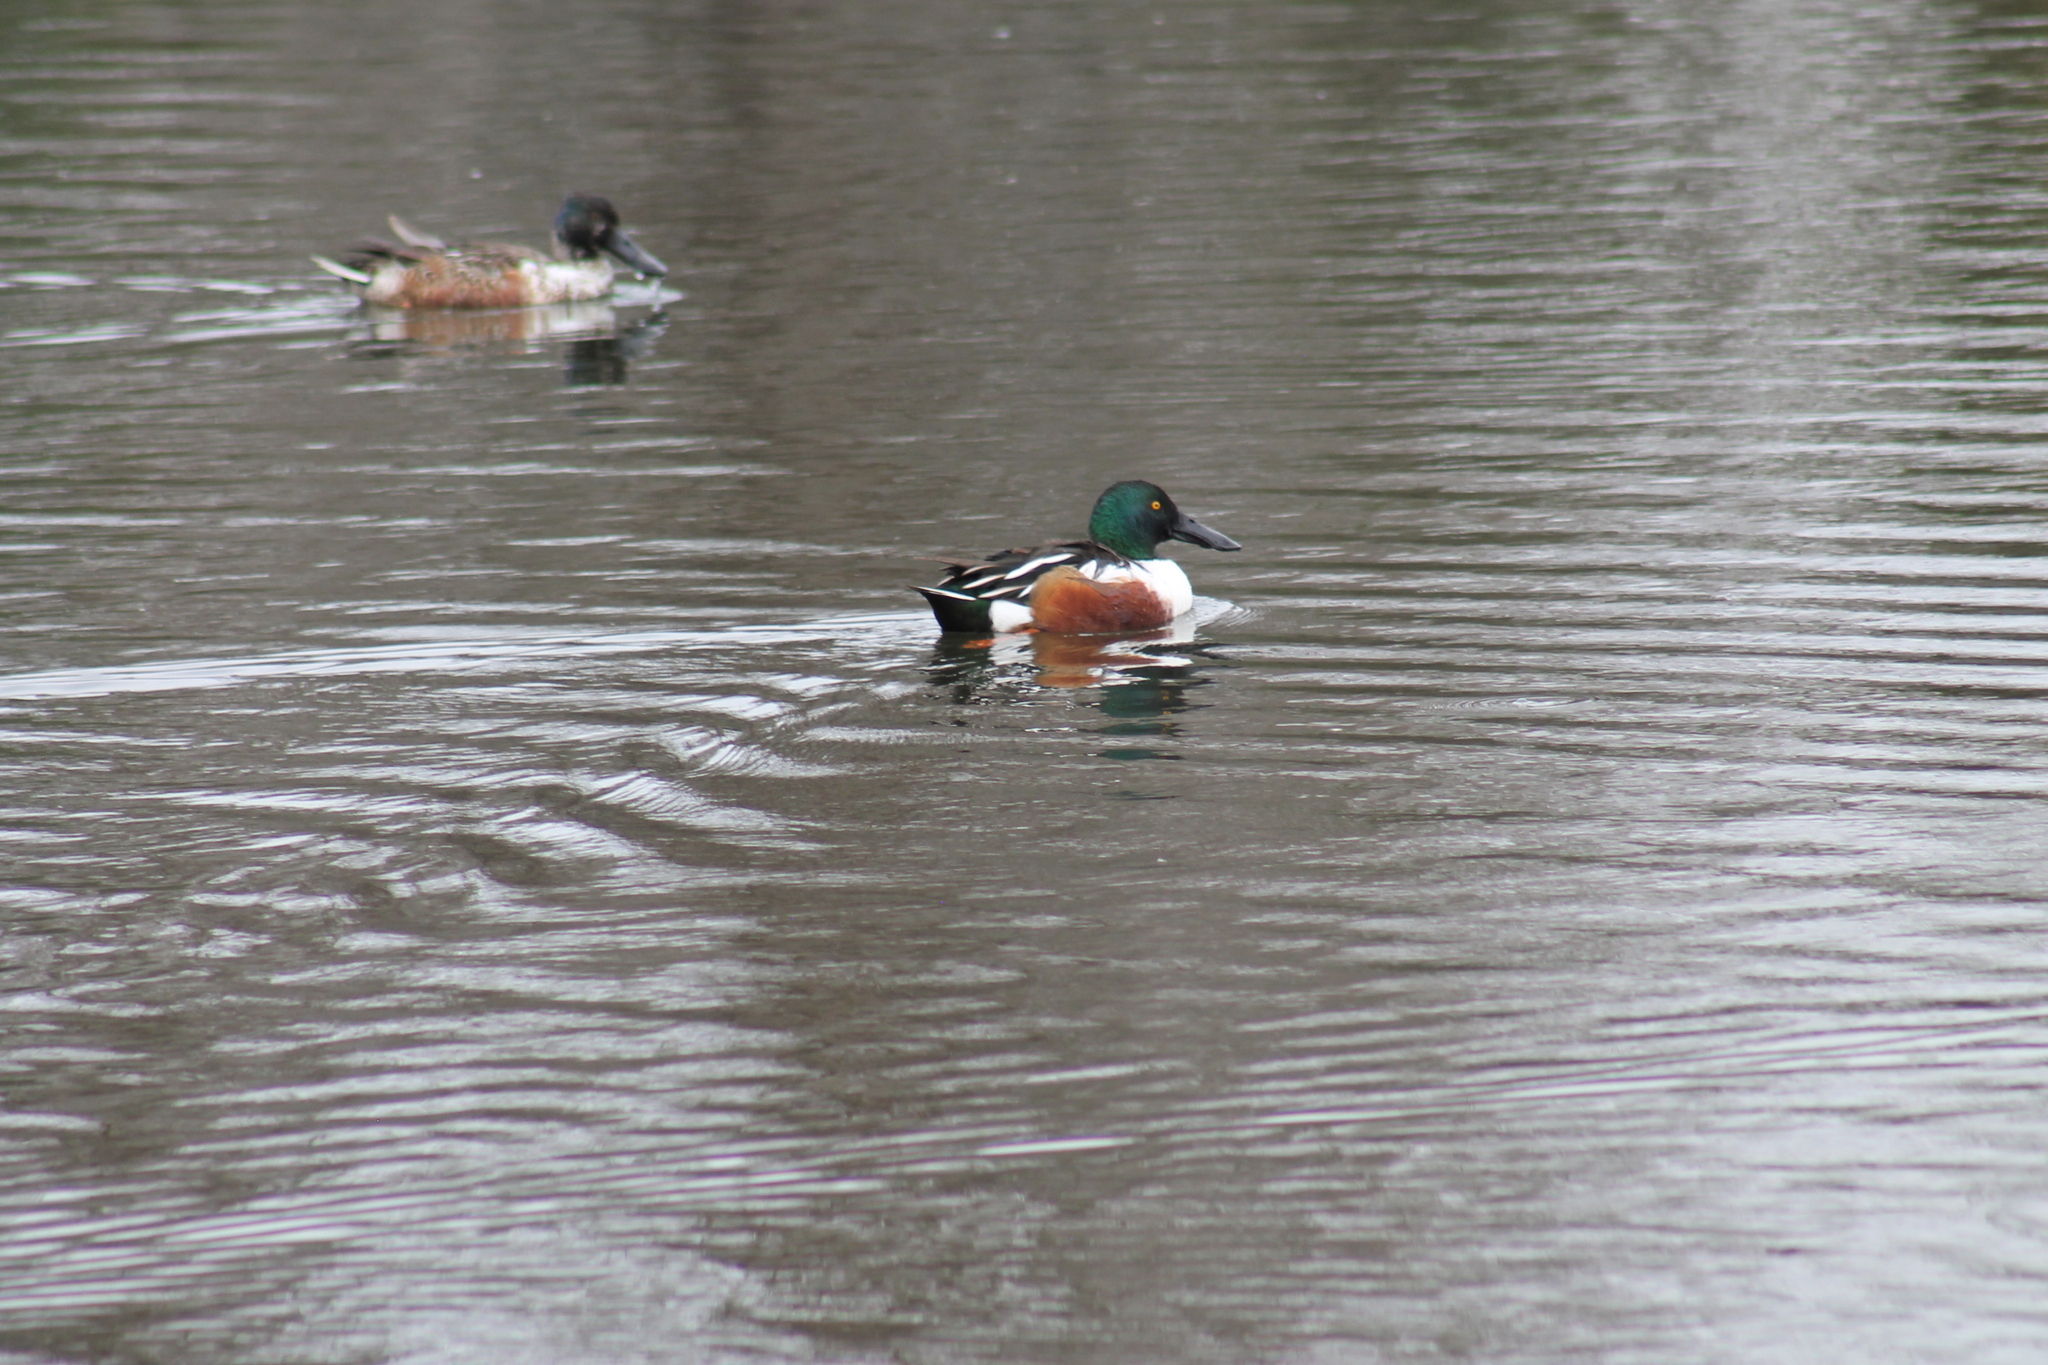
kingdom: Animalia
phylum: Chordata
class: Aves
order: Anseriformes
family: Anatidae
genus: Spatula
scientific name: Spatula clypeata
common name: Northern shoveler
